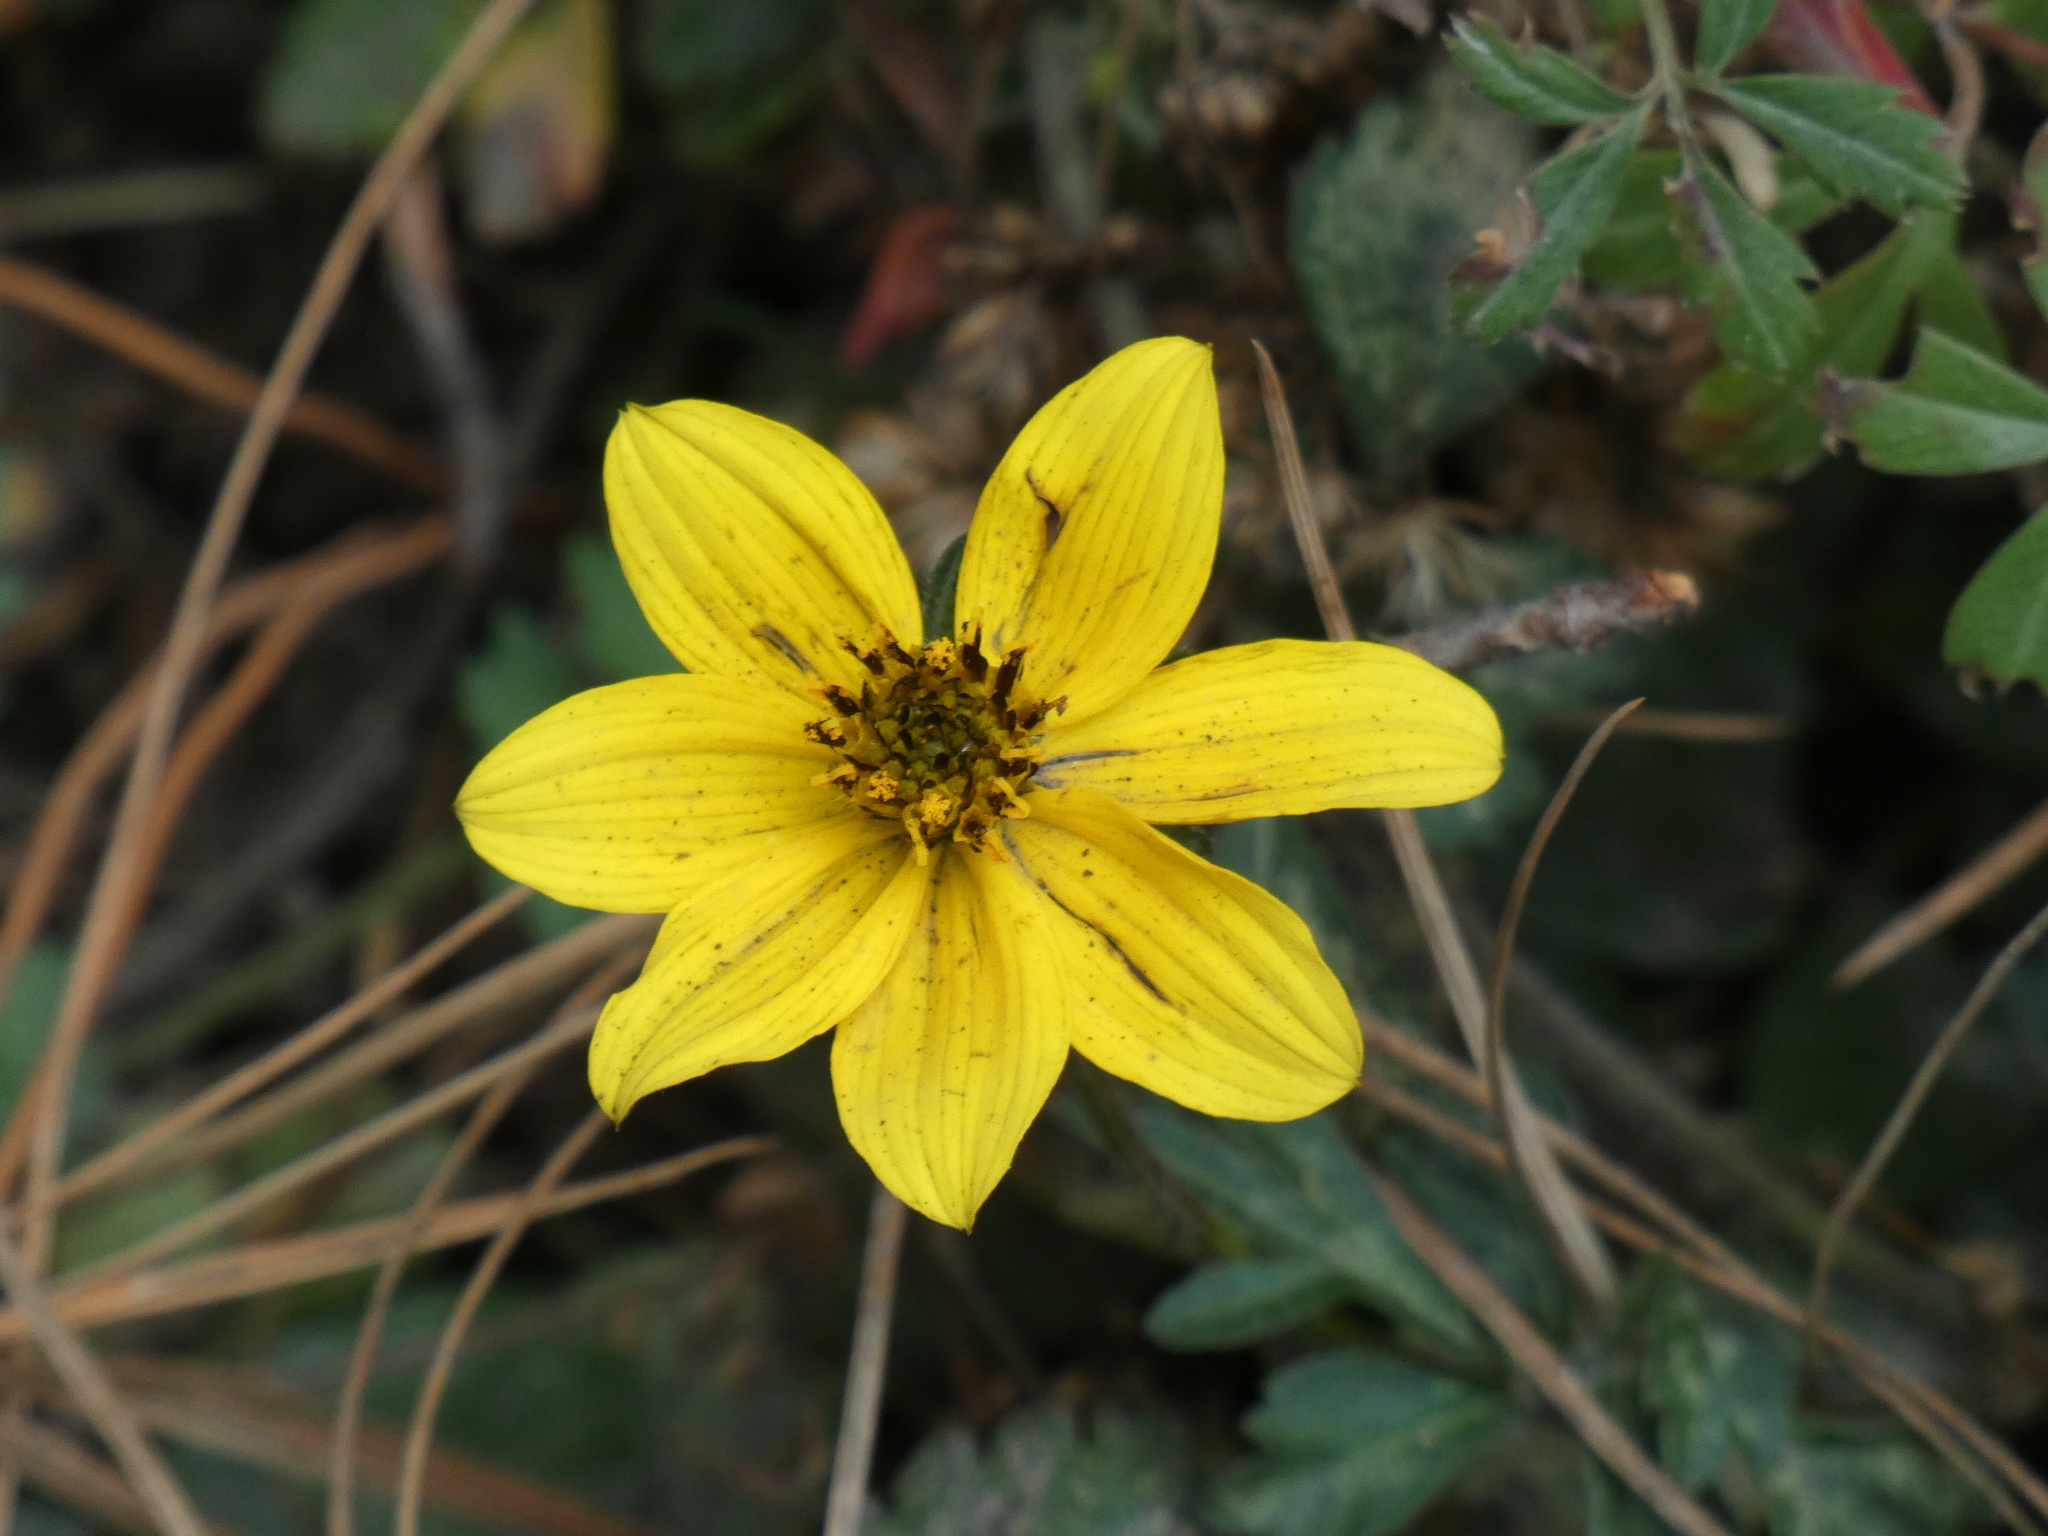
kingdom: Plantae
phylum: Tracheophyta
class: Magnoliopsida
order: Asterales
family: Asteraceae
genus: Bidens
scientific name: Bidens triplinervia
